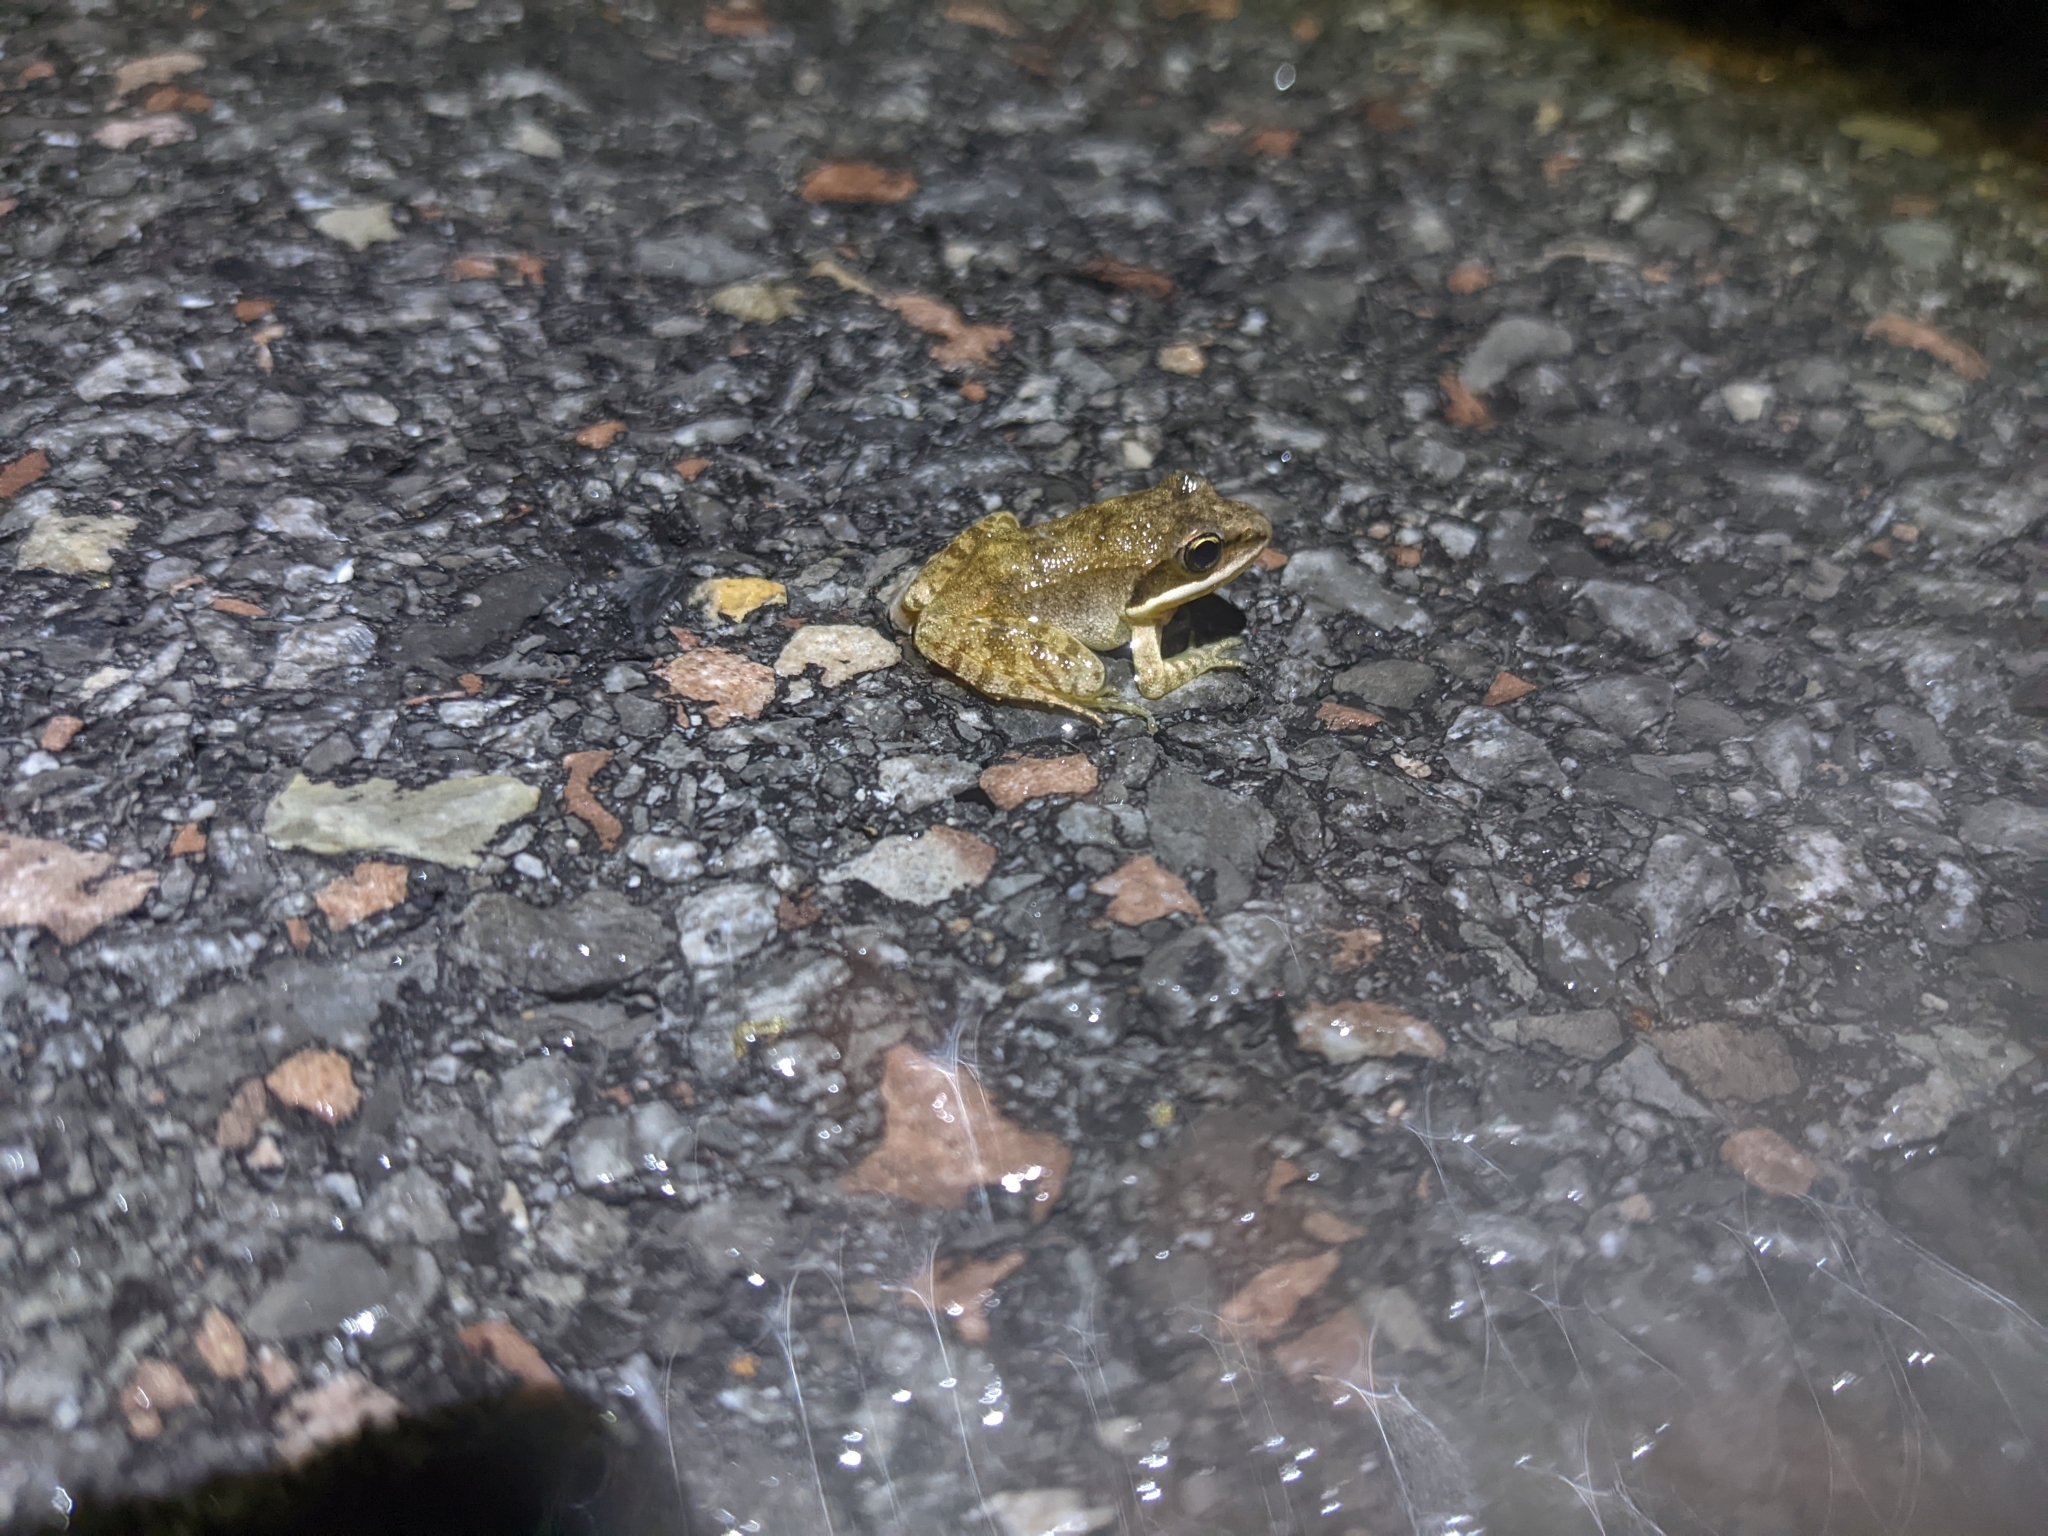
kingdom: Animalia
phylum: Chordata
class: Amphibia
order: Anura
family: Ranidae
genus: Lithobates
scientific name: Lithobates sylvaticus
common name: Wood frog
